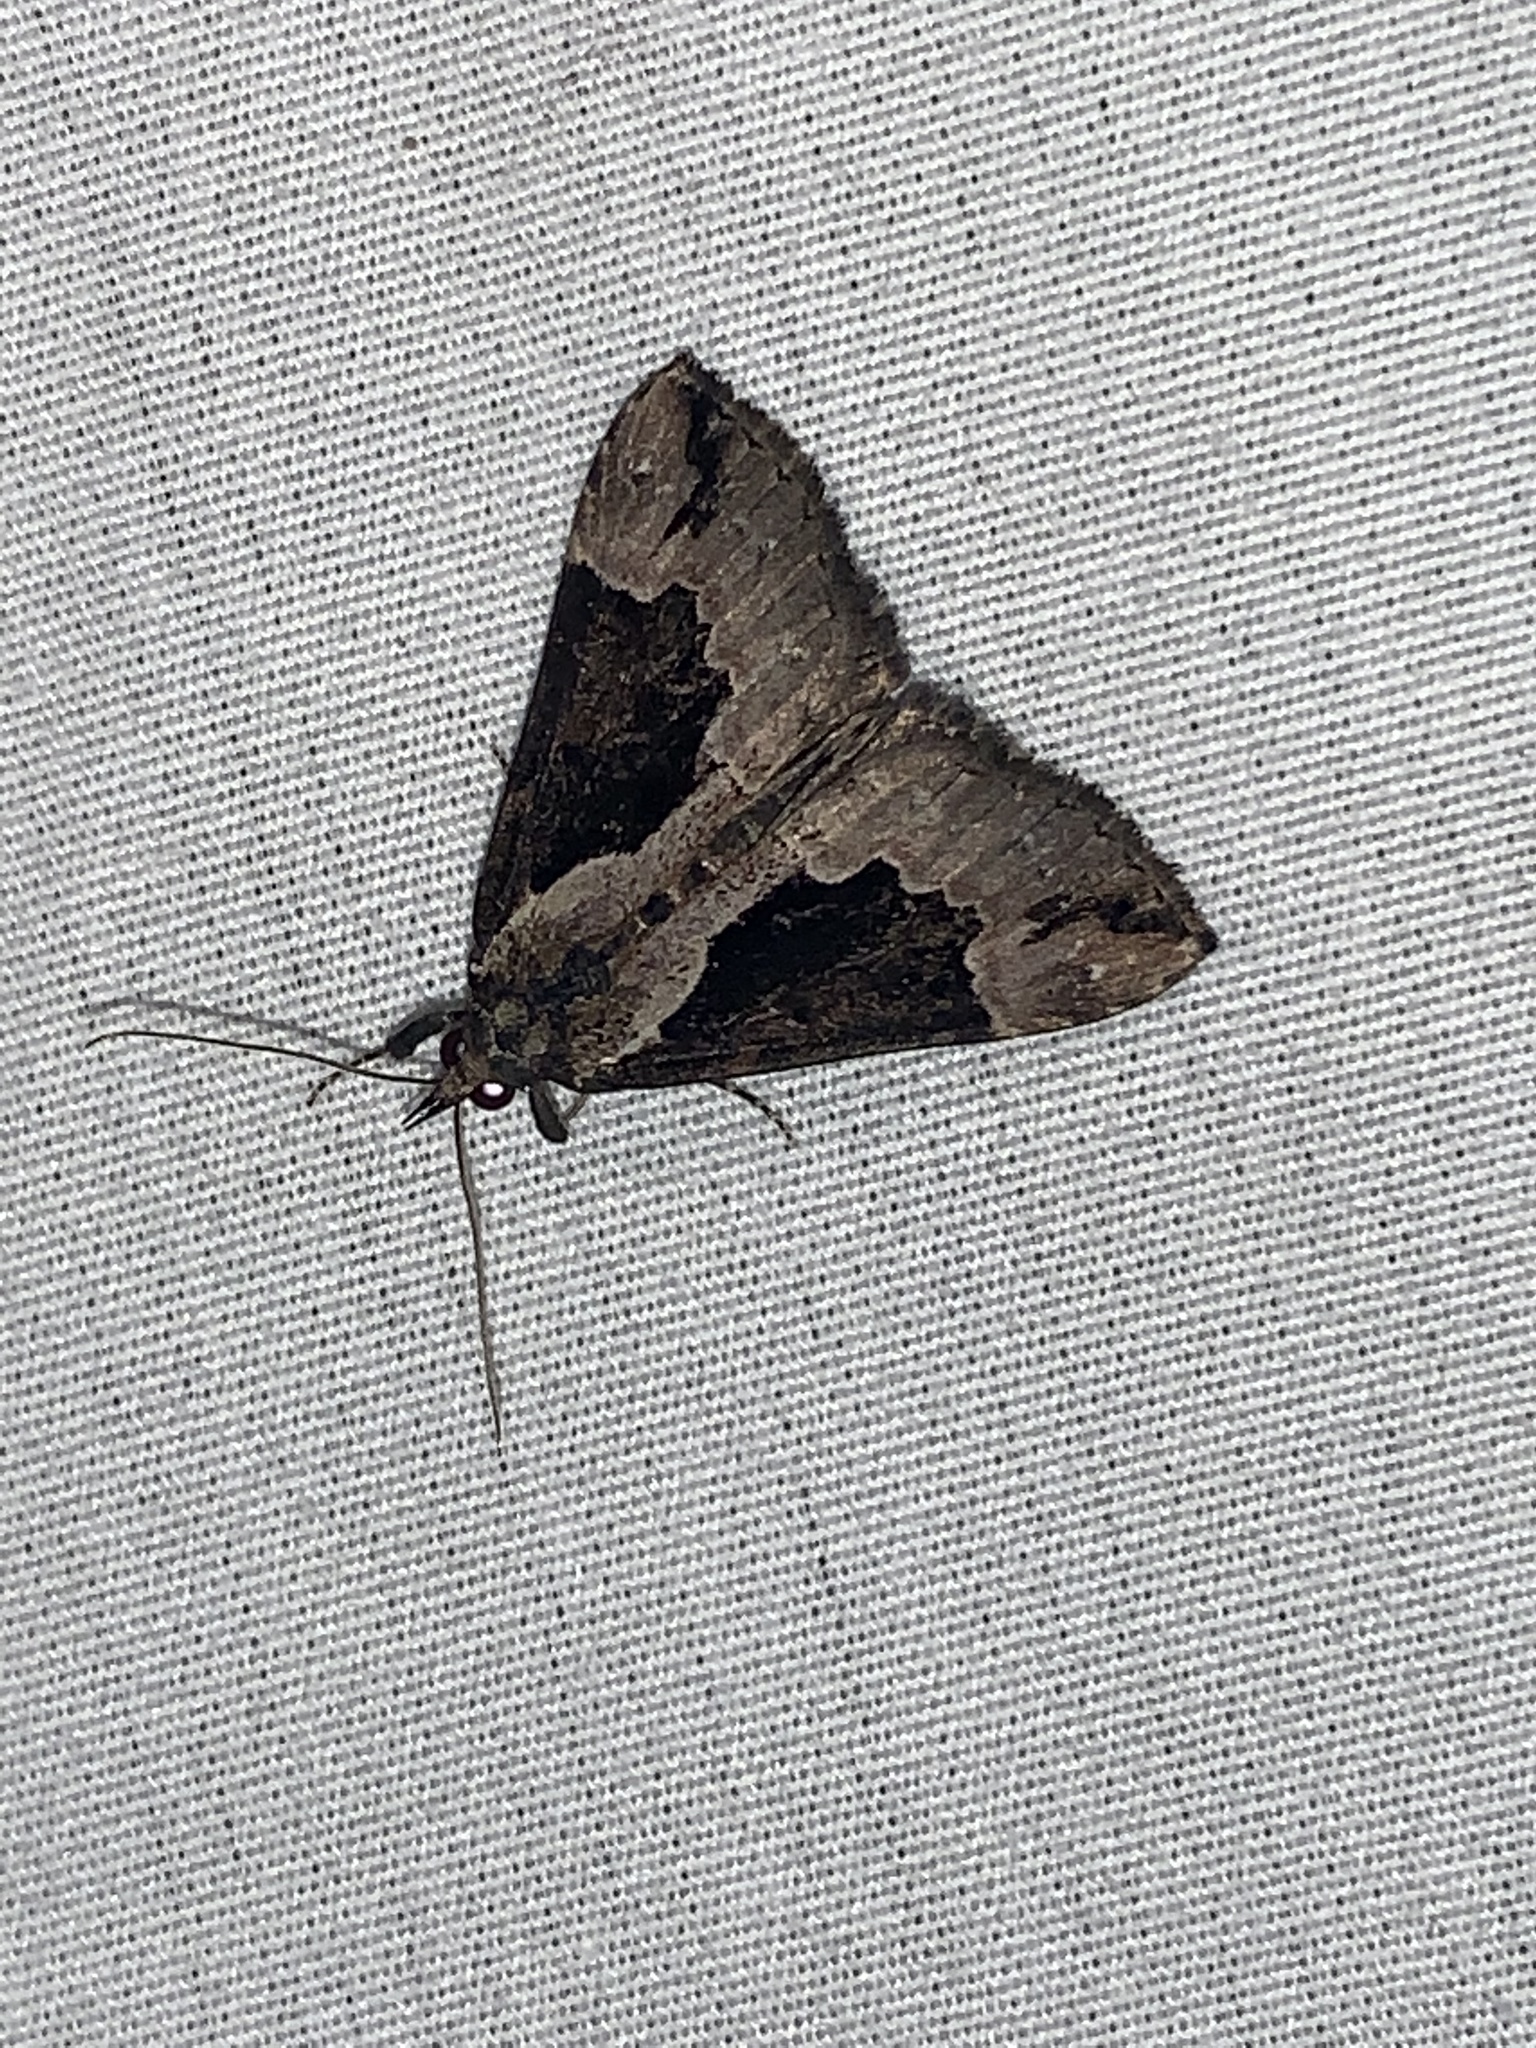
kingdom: Animalia
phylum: Arthropoda
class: Insecta
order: Lepidoptera
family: Erebidae
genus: Hypena
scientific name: Hypena baltimoralis
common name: Baltimore snout
